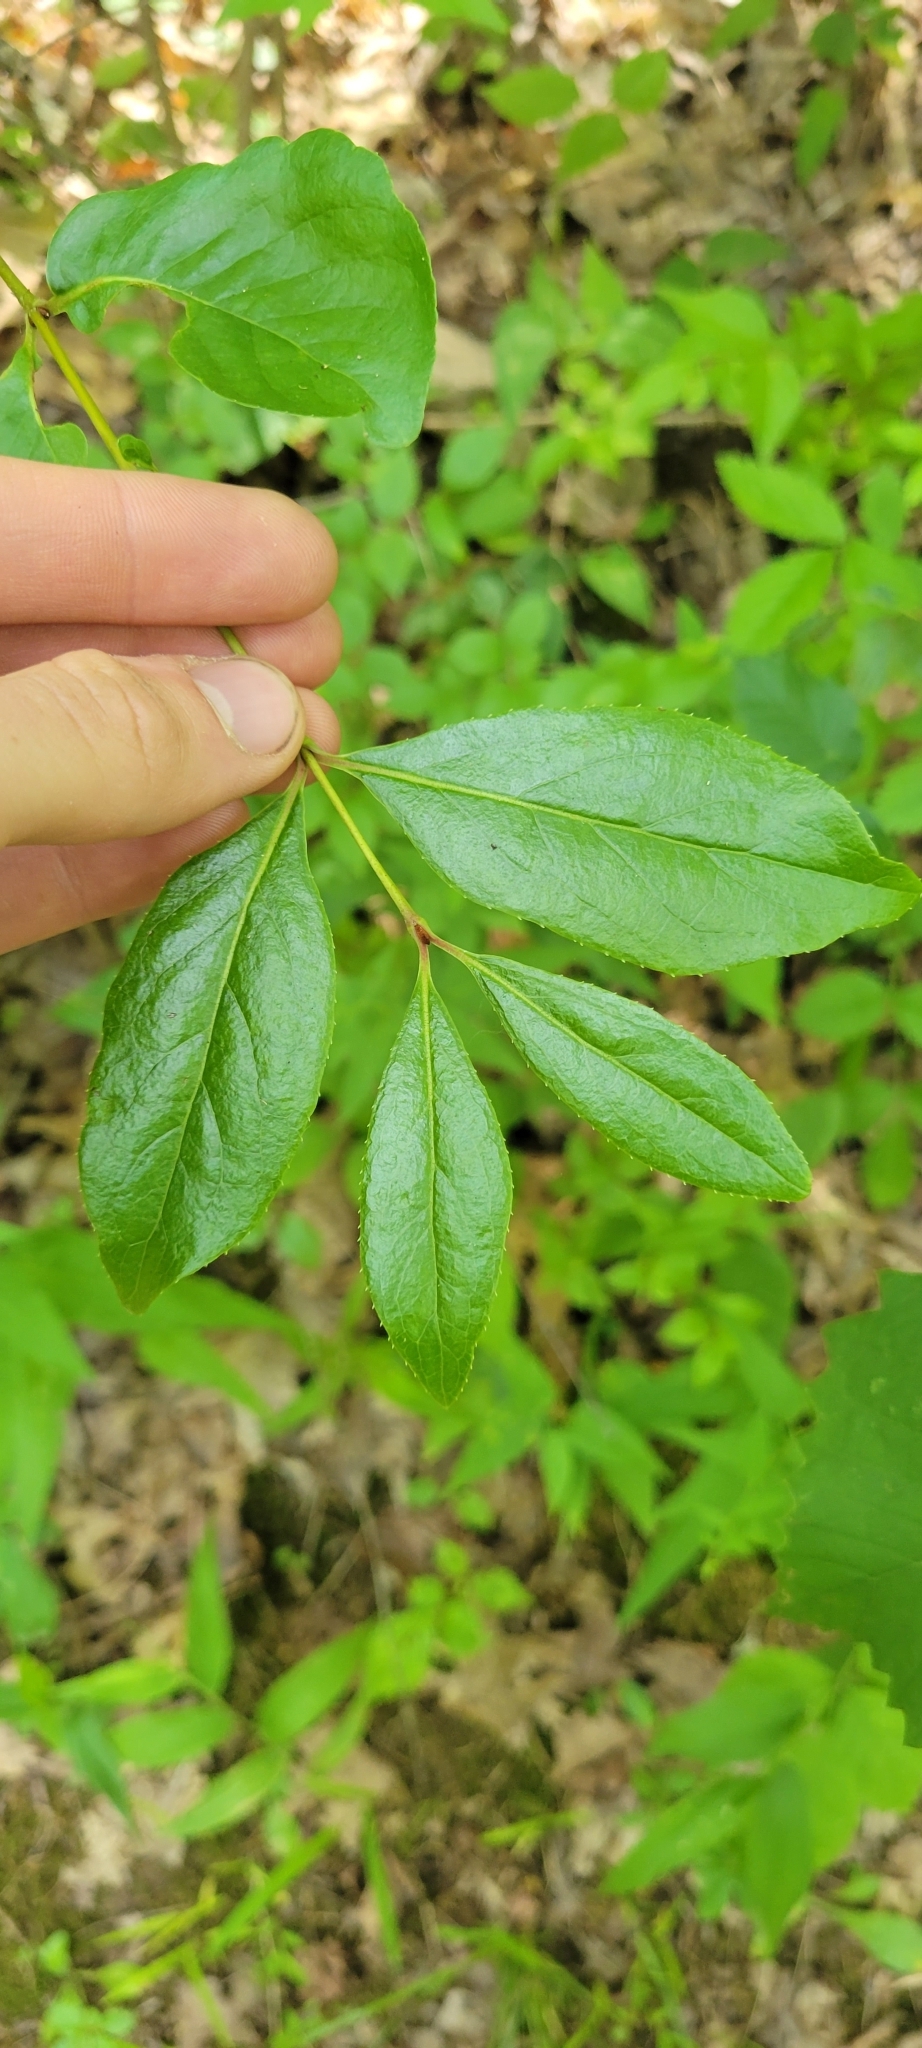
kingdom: Plantae
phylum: Tracheophyta
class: Magnoliopsida
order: Dipsacales
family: Viburnaceae
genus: Viburnum
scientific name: Viburnum rufidulum
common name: Blue haw
